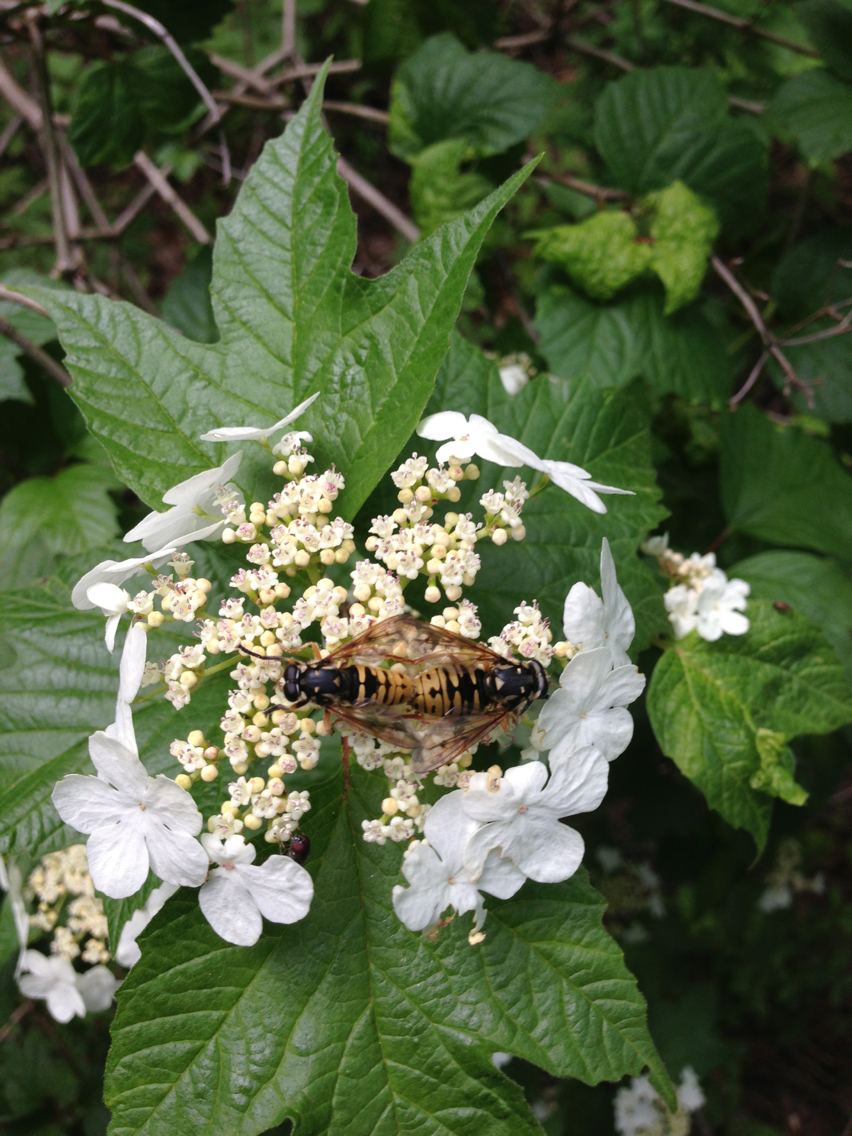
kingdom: Animalia
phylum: Arthropoda
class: Insecta
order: Diptera
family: Syrphidae
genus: Temnostoma
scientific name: Temnostoma alternans
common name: Wasp-like falsehorn
